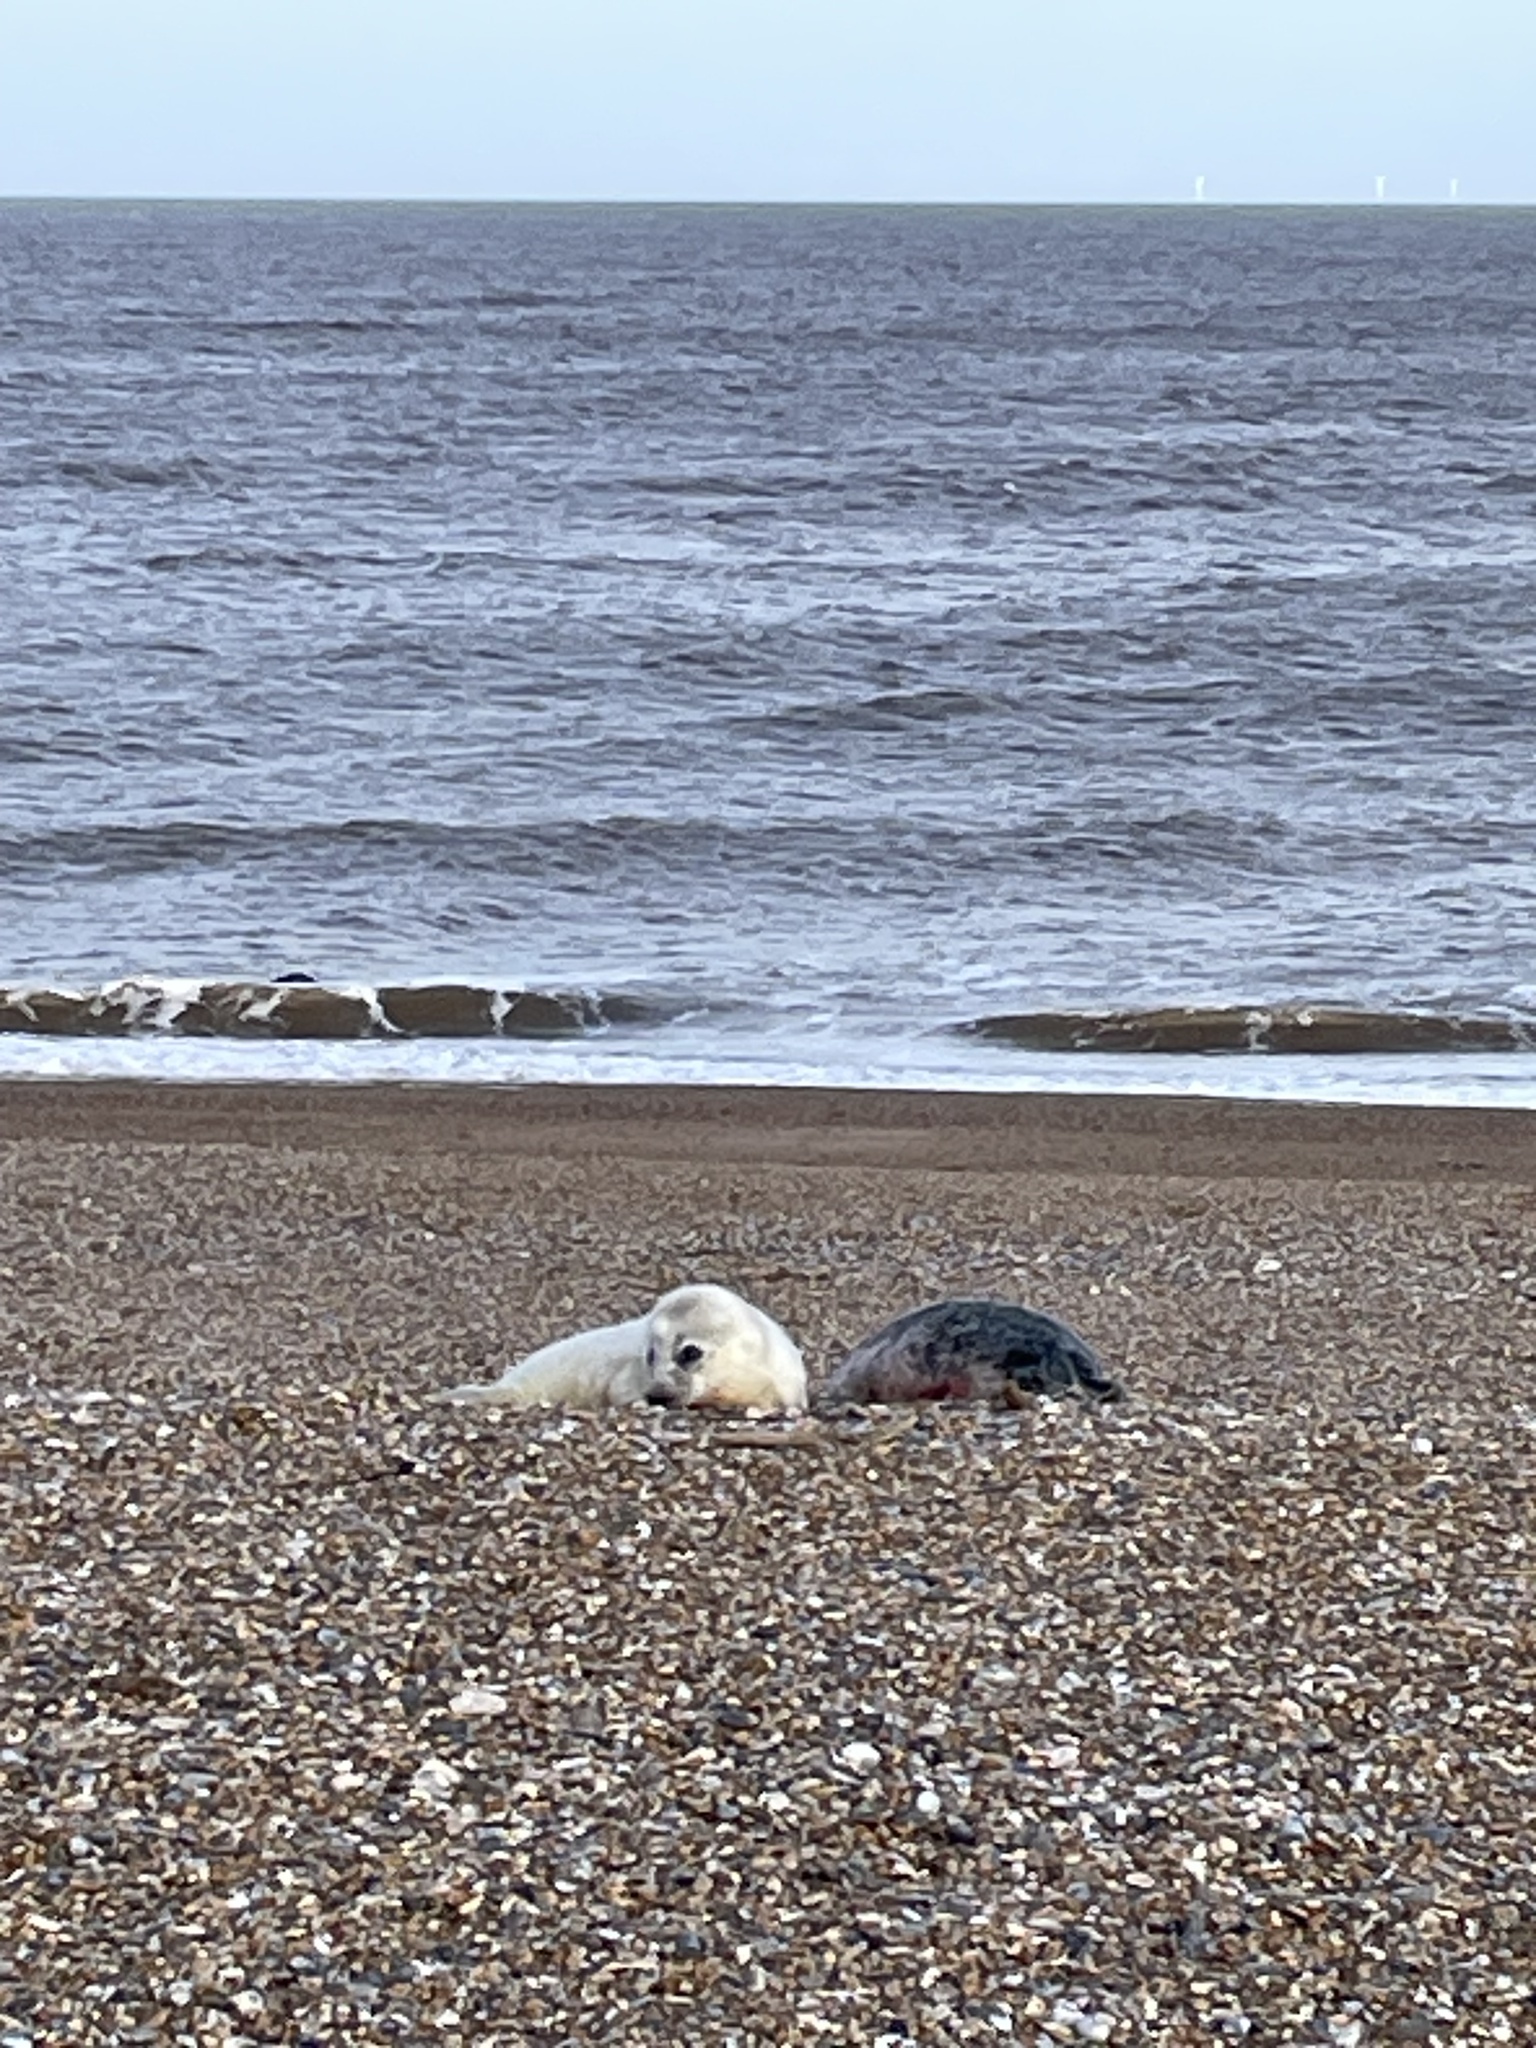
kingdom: Animalia
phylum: Chordata
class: Mammalia
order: Carnivora
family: Phocidae
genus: Halichoerus
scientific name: Halichoerus grypus
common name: Grey seal
